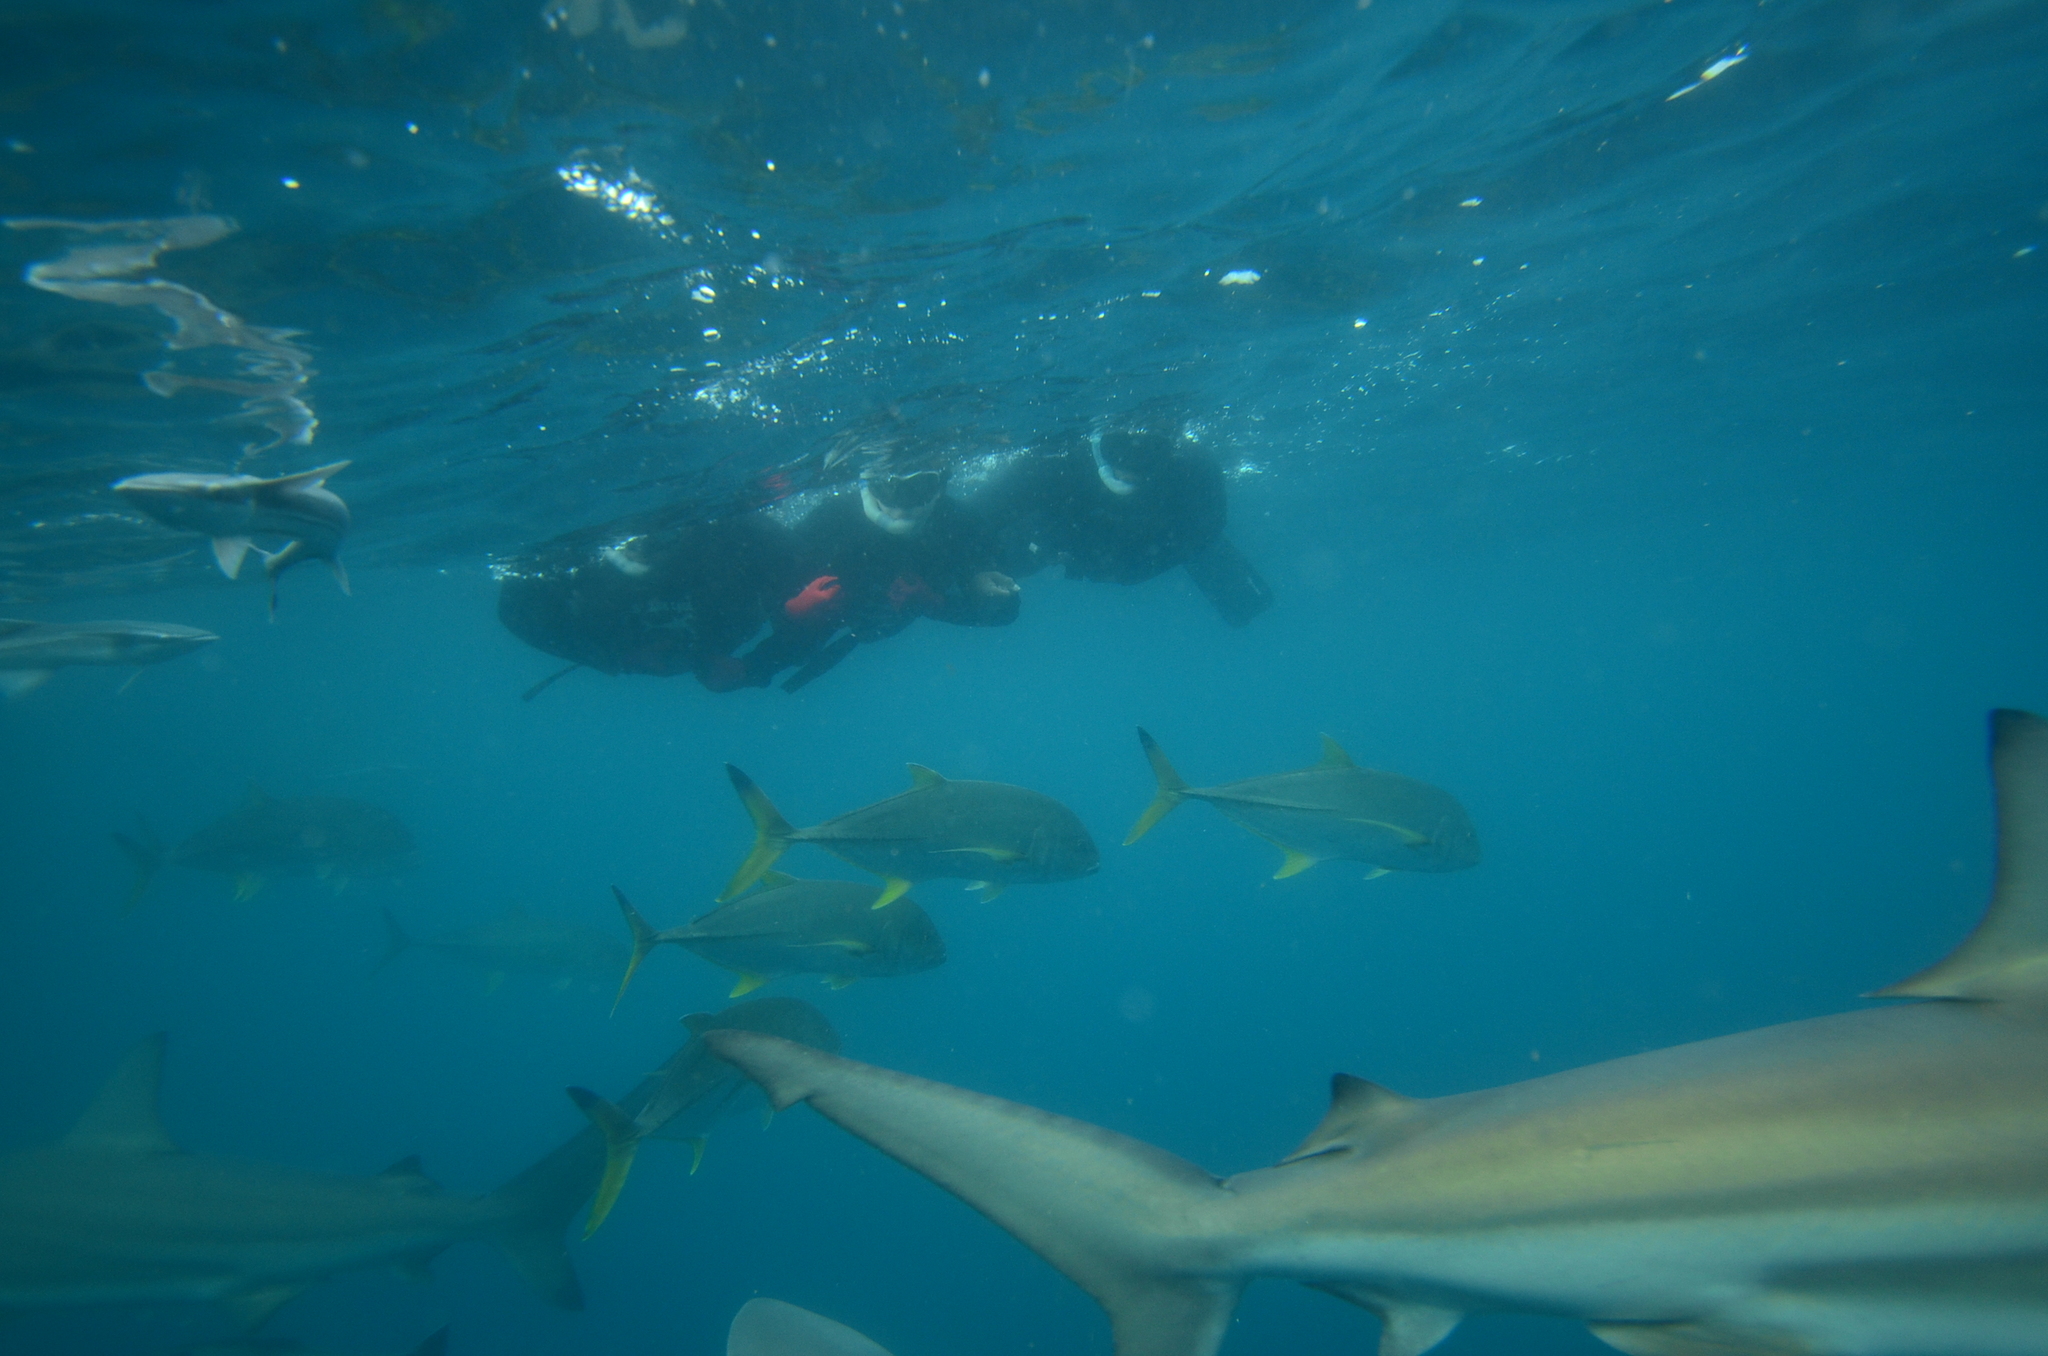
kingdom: Animalia
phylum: Chordata
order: Perciformes
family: Carangidae
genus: Caranx
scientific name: Caranx heberi
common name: Blacktip trevally
